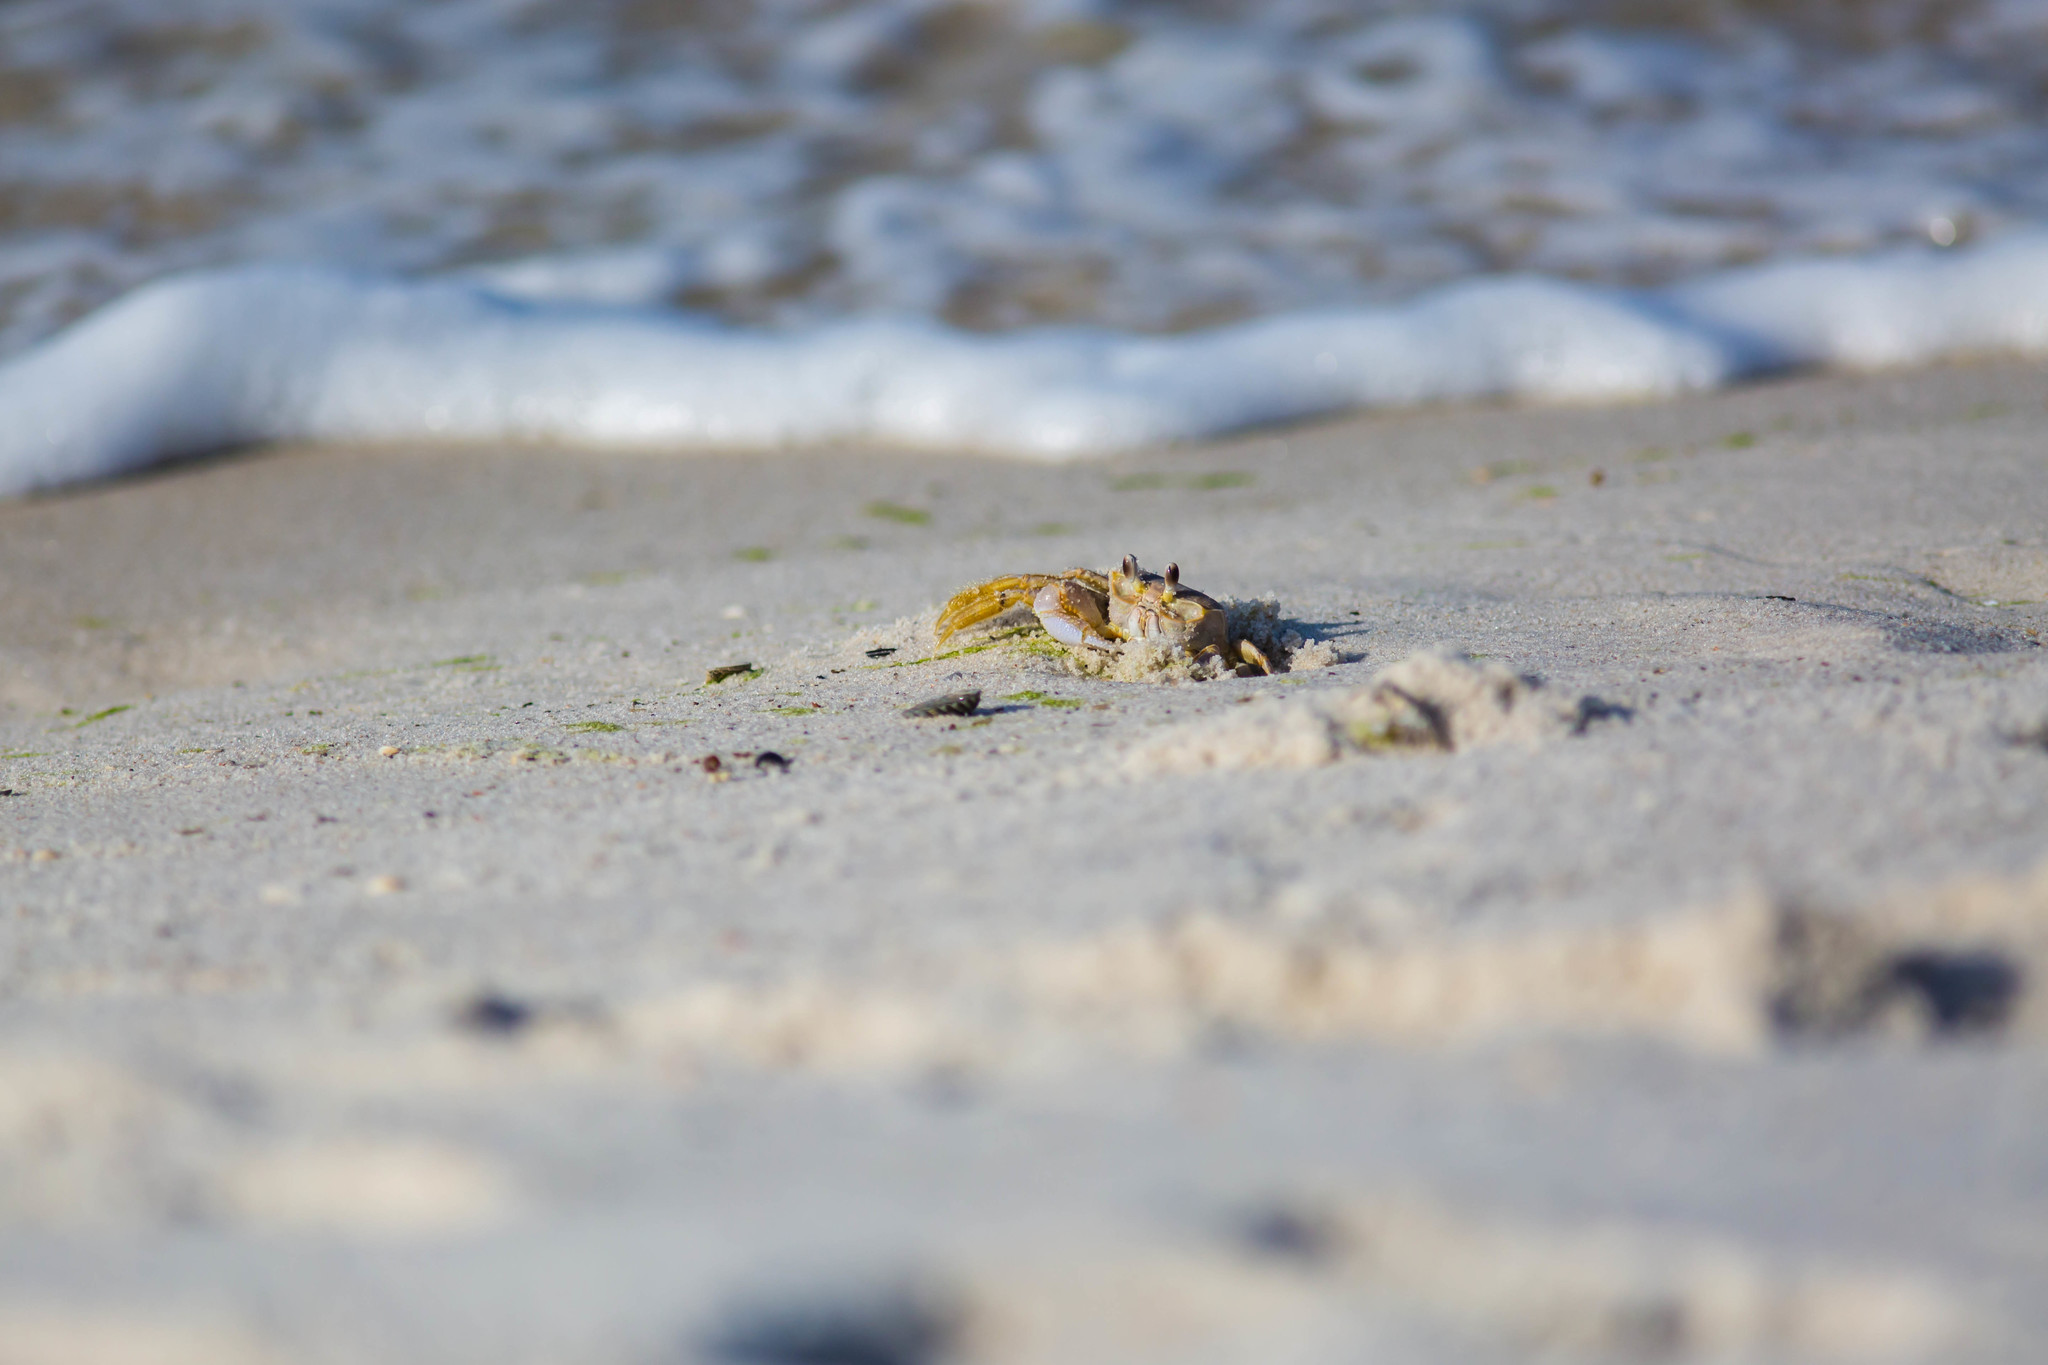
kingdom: Animalia
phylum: Arthropoda
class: Malacostraca
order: Decapoda
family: Ocypodidae
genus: Ocypode
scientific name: Ocypode quadrata
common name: Ghost crab
